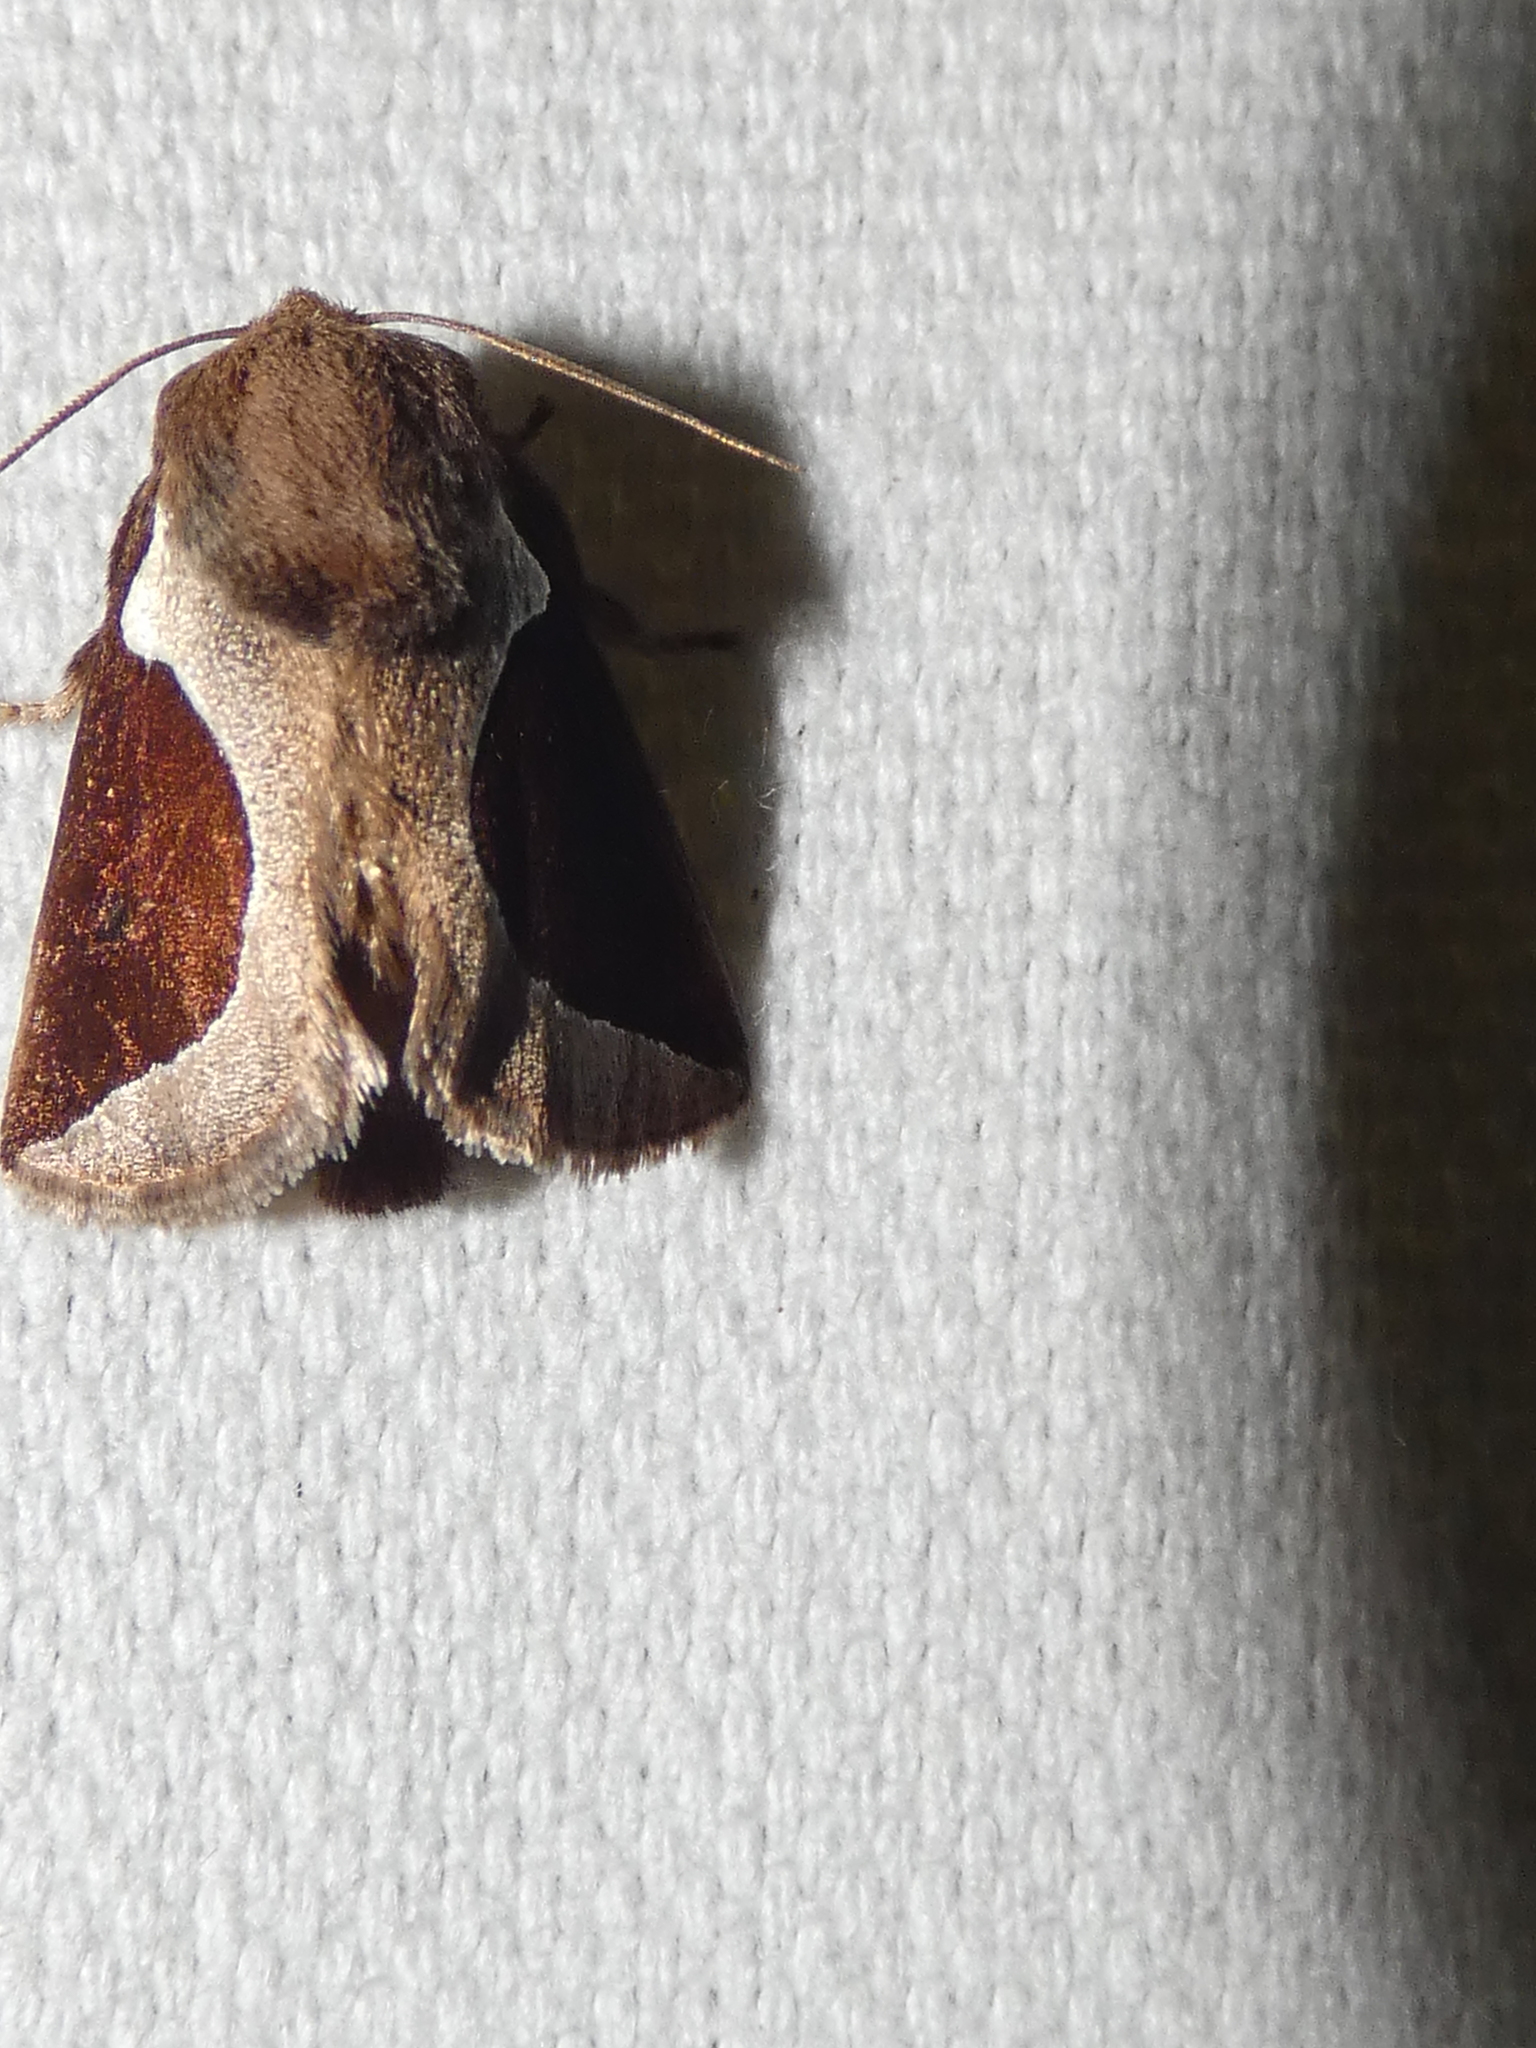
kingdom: Animalia
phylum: Arthropoda
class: Insecta
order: Lepidoptera
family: Limacodidae
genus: Prolimacodes
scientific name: Prolimacodes badia
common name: Skiff moth
